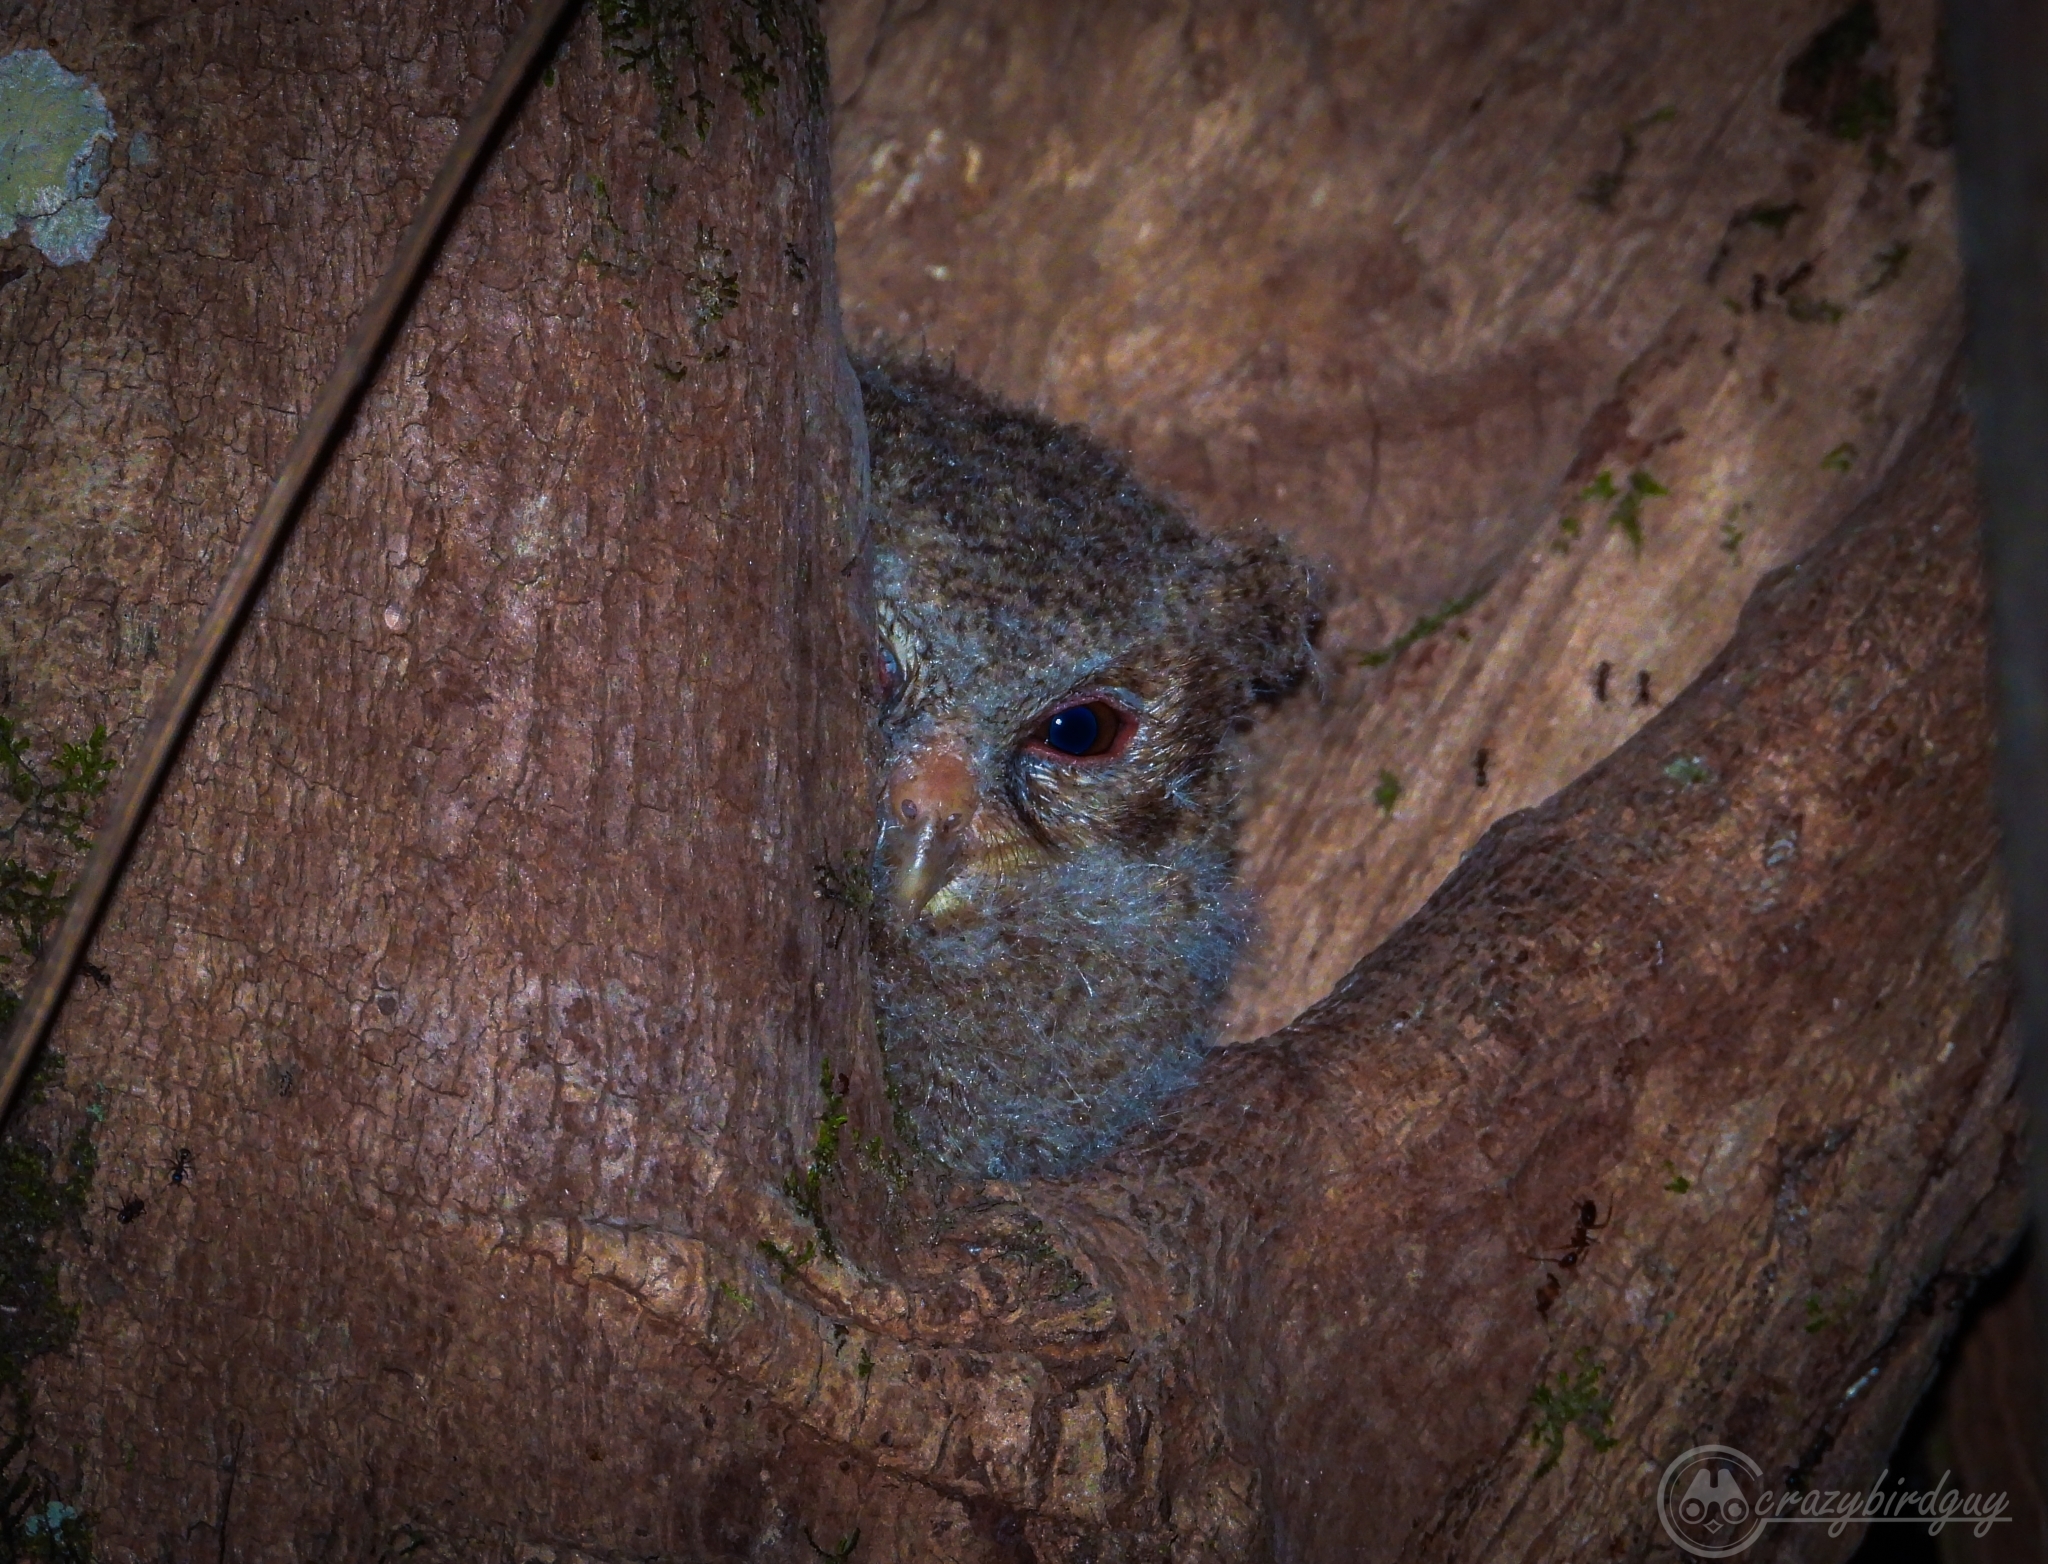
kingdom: Animalia
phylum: Chordata
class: Aves
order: Strigiformes
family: Strigidae
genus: Otus
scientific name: Otus lempiji
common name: Sunda scops-owl
